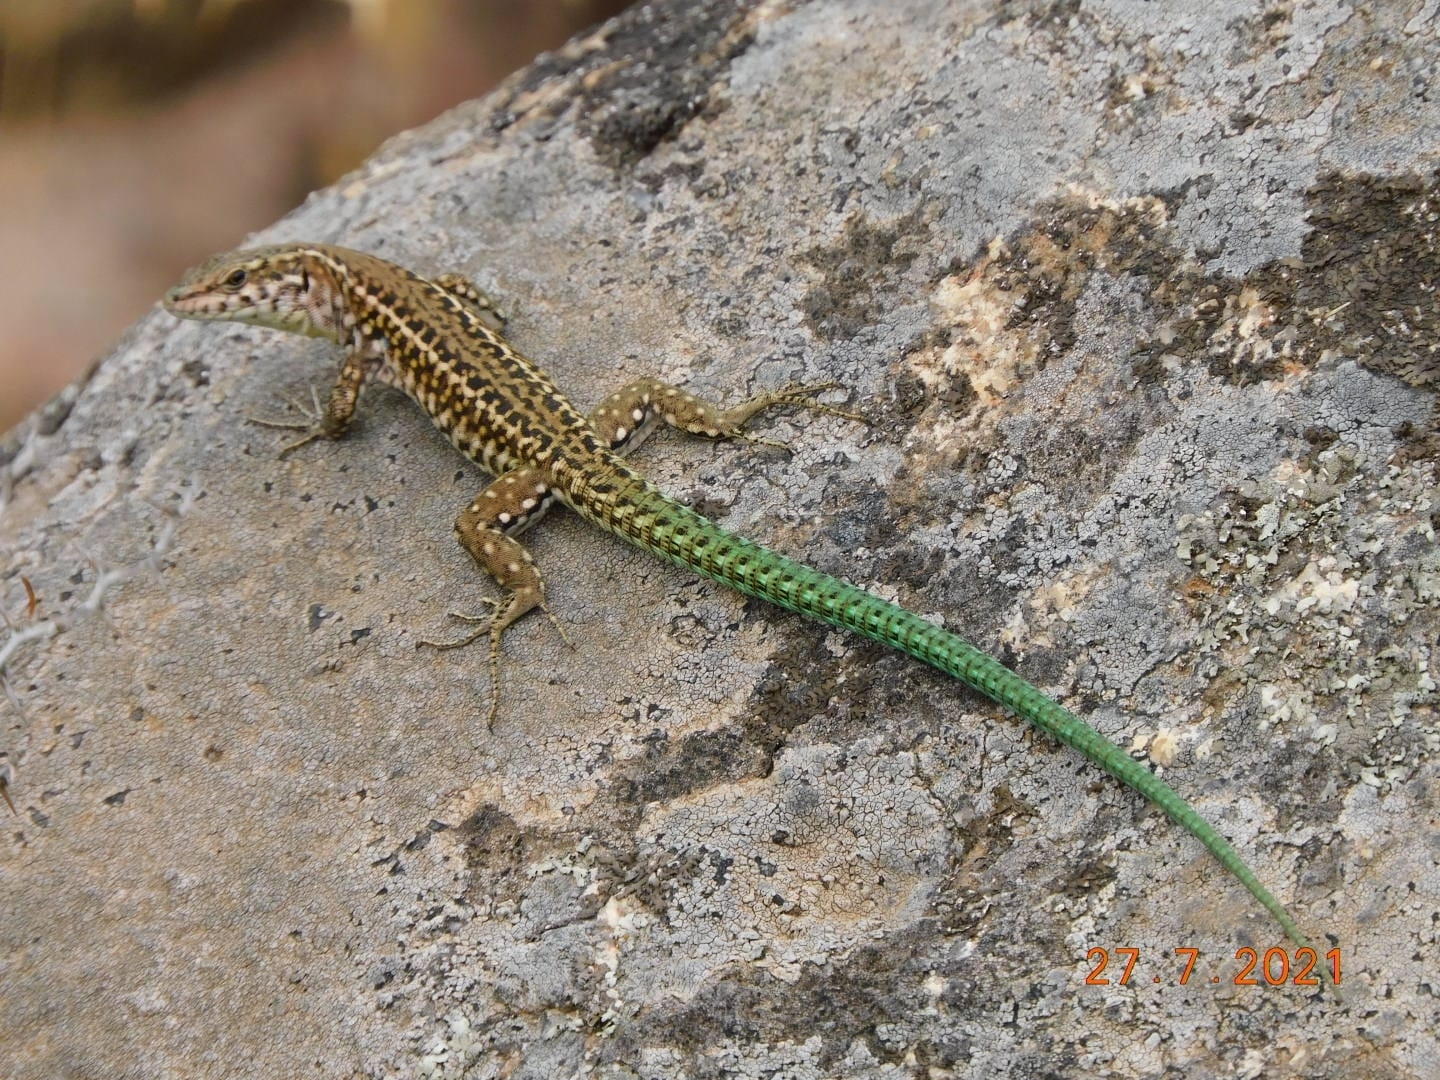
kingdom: Animalia
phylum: Chordata
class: Squamata
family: Lacertidae
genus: Podarcis
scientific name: Podarcis tiliguerta
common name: Tyrrhenian wall lizard
